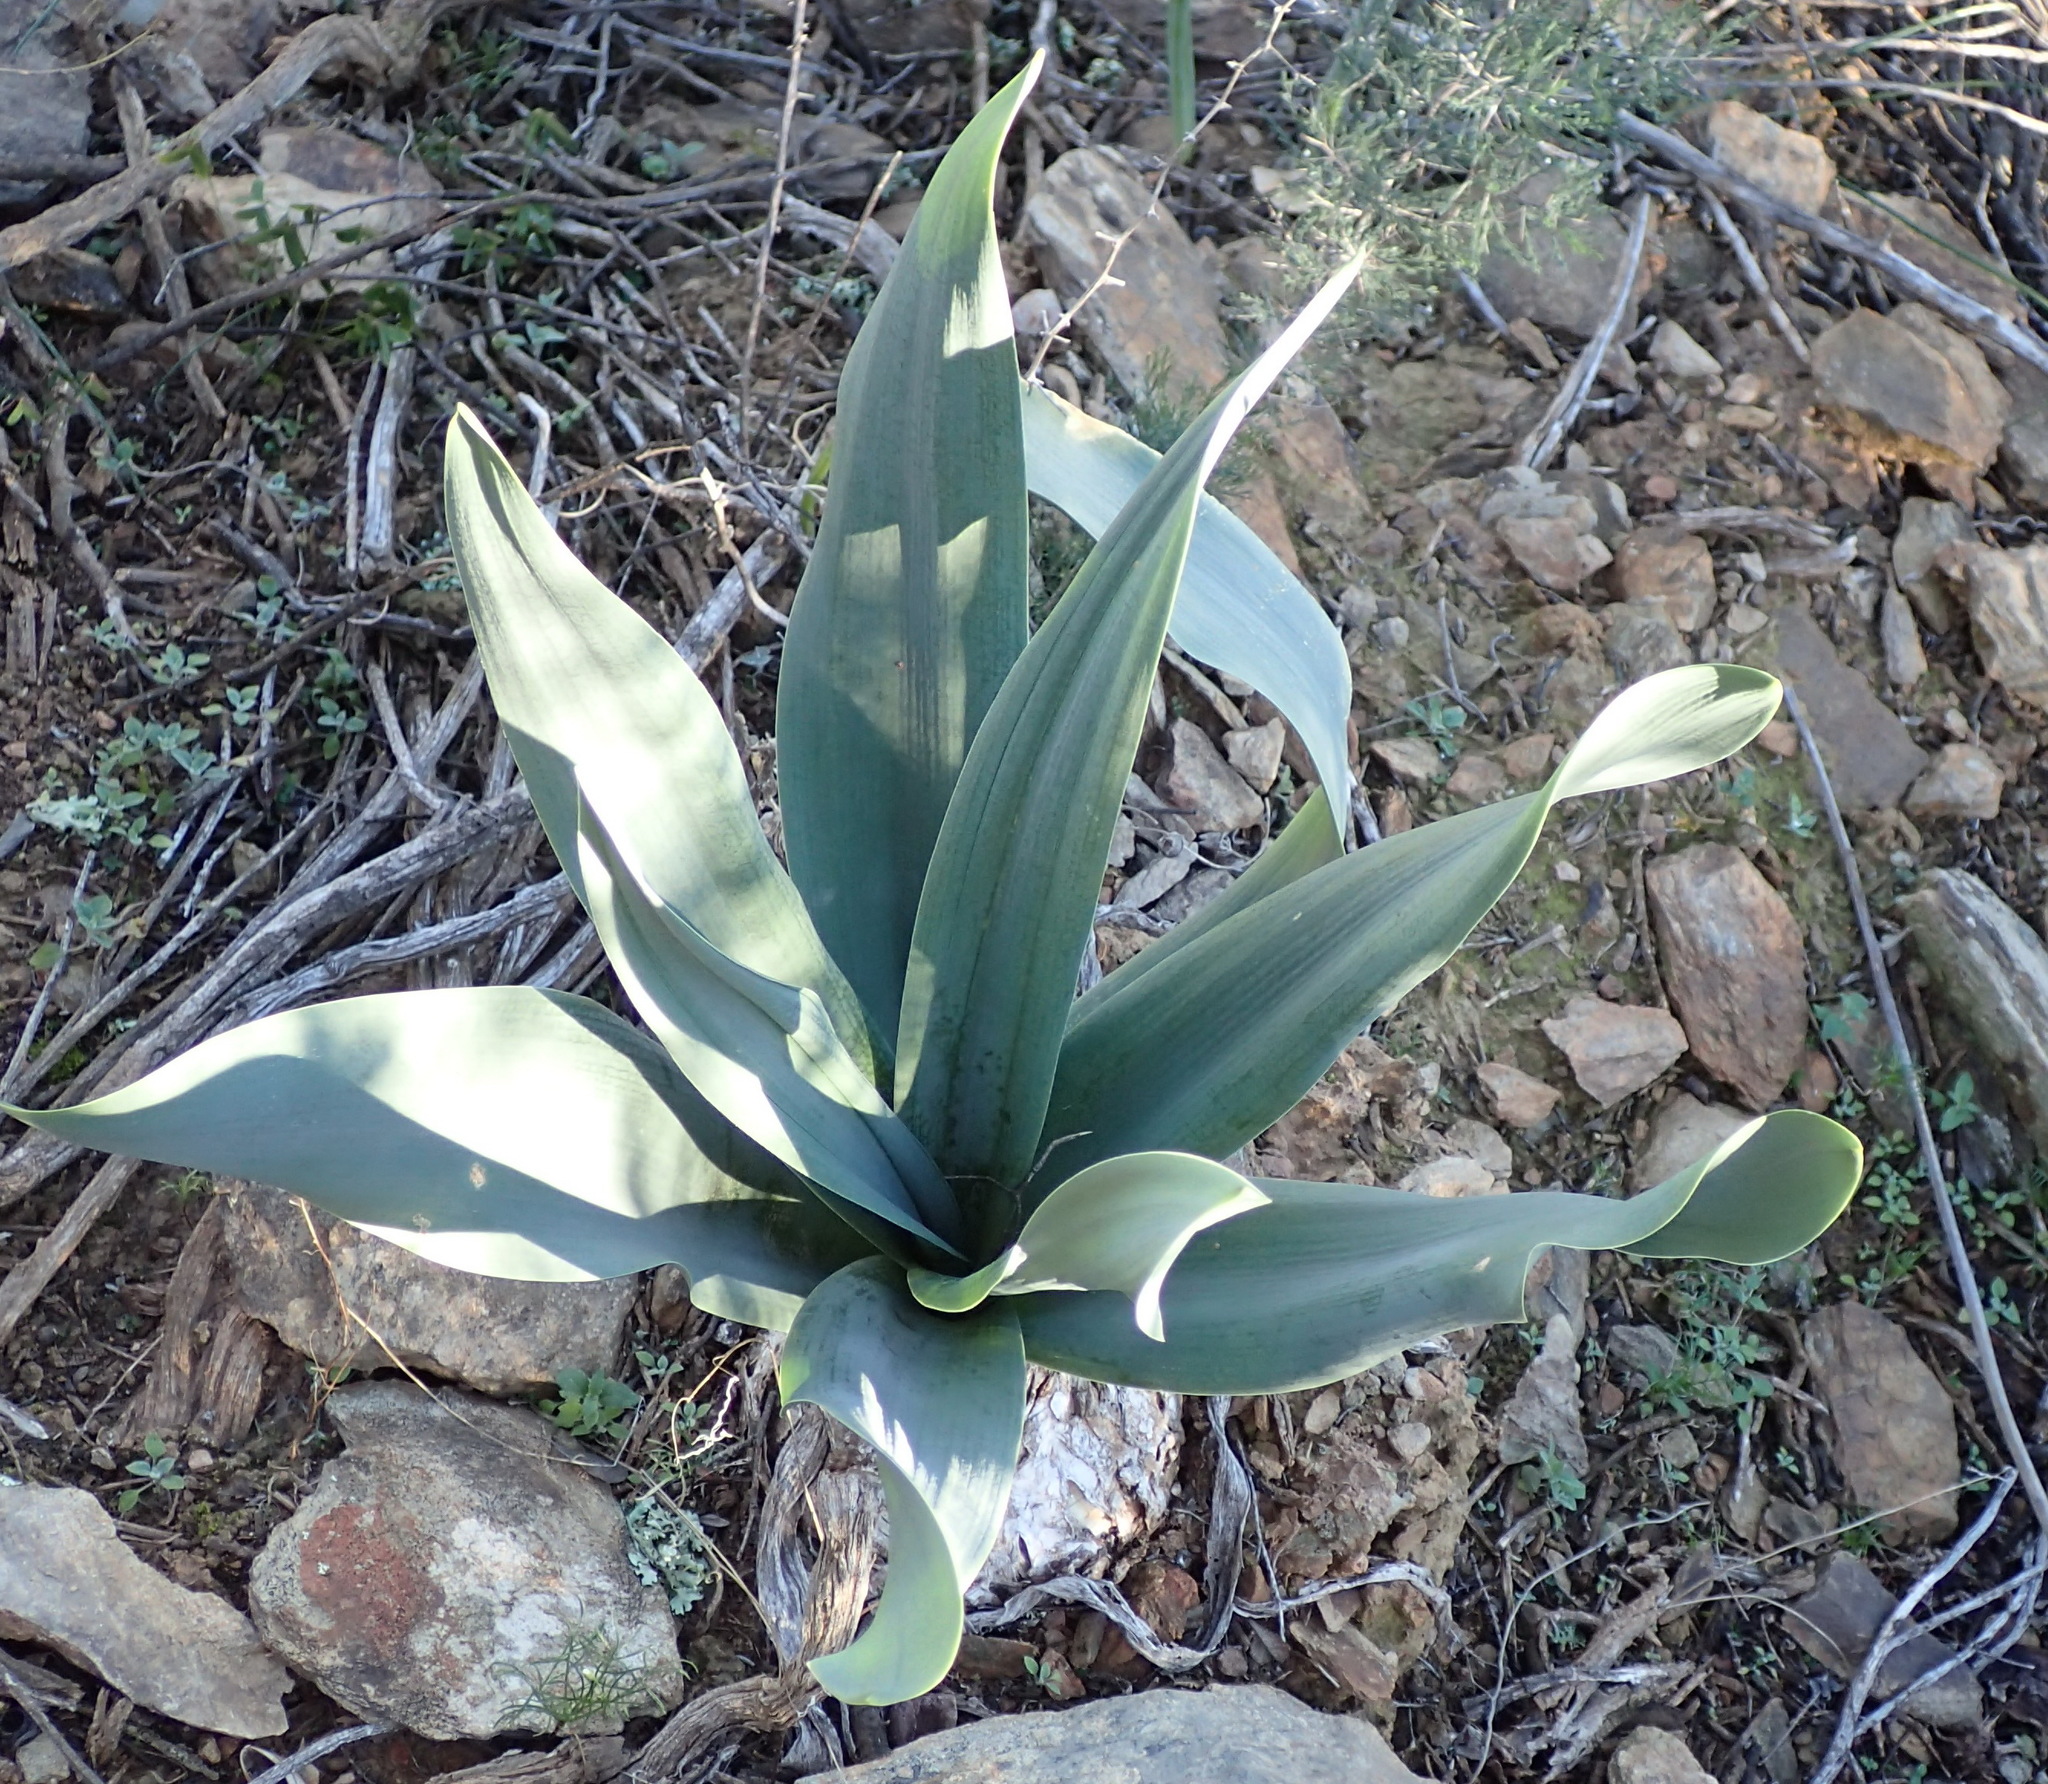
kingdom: Plantae
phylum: Tracheophyta
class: Liliopsida
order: Asparagales
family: Asparagaceae
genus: Drimia
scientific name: Drimia capensis
